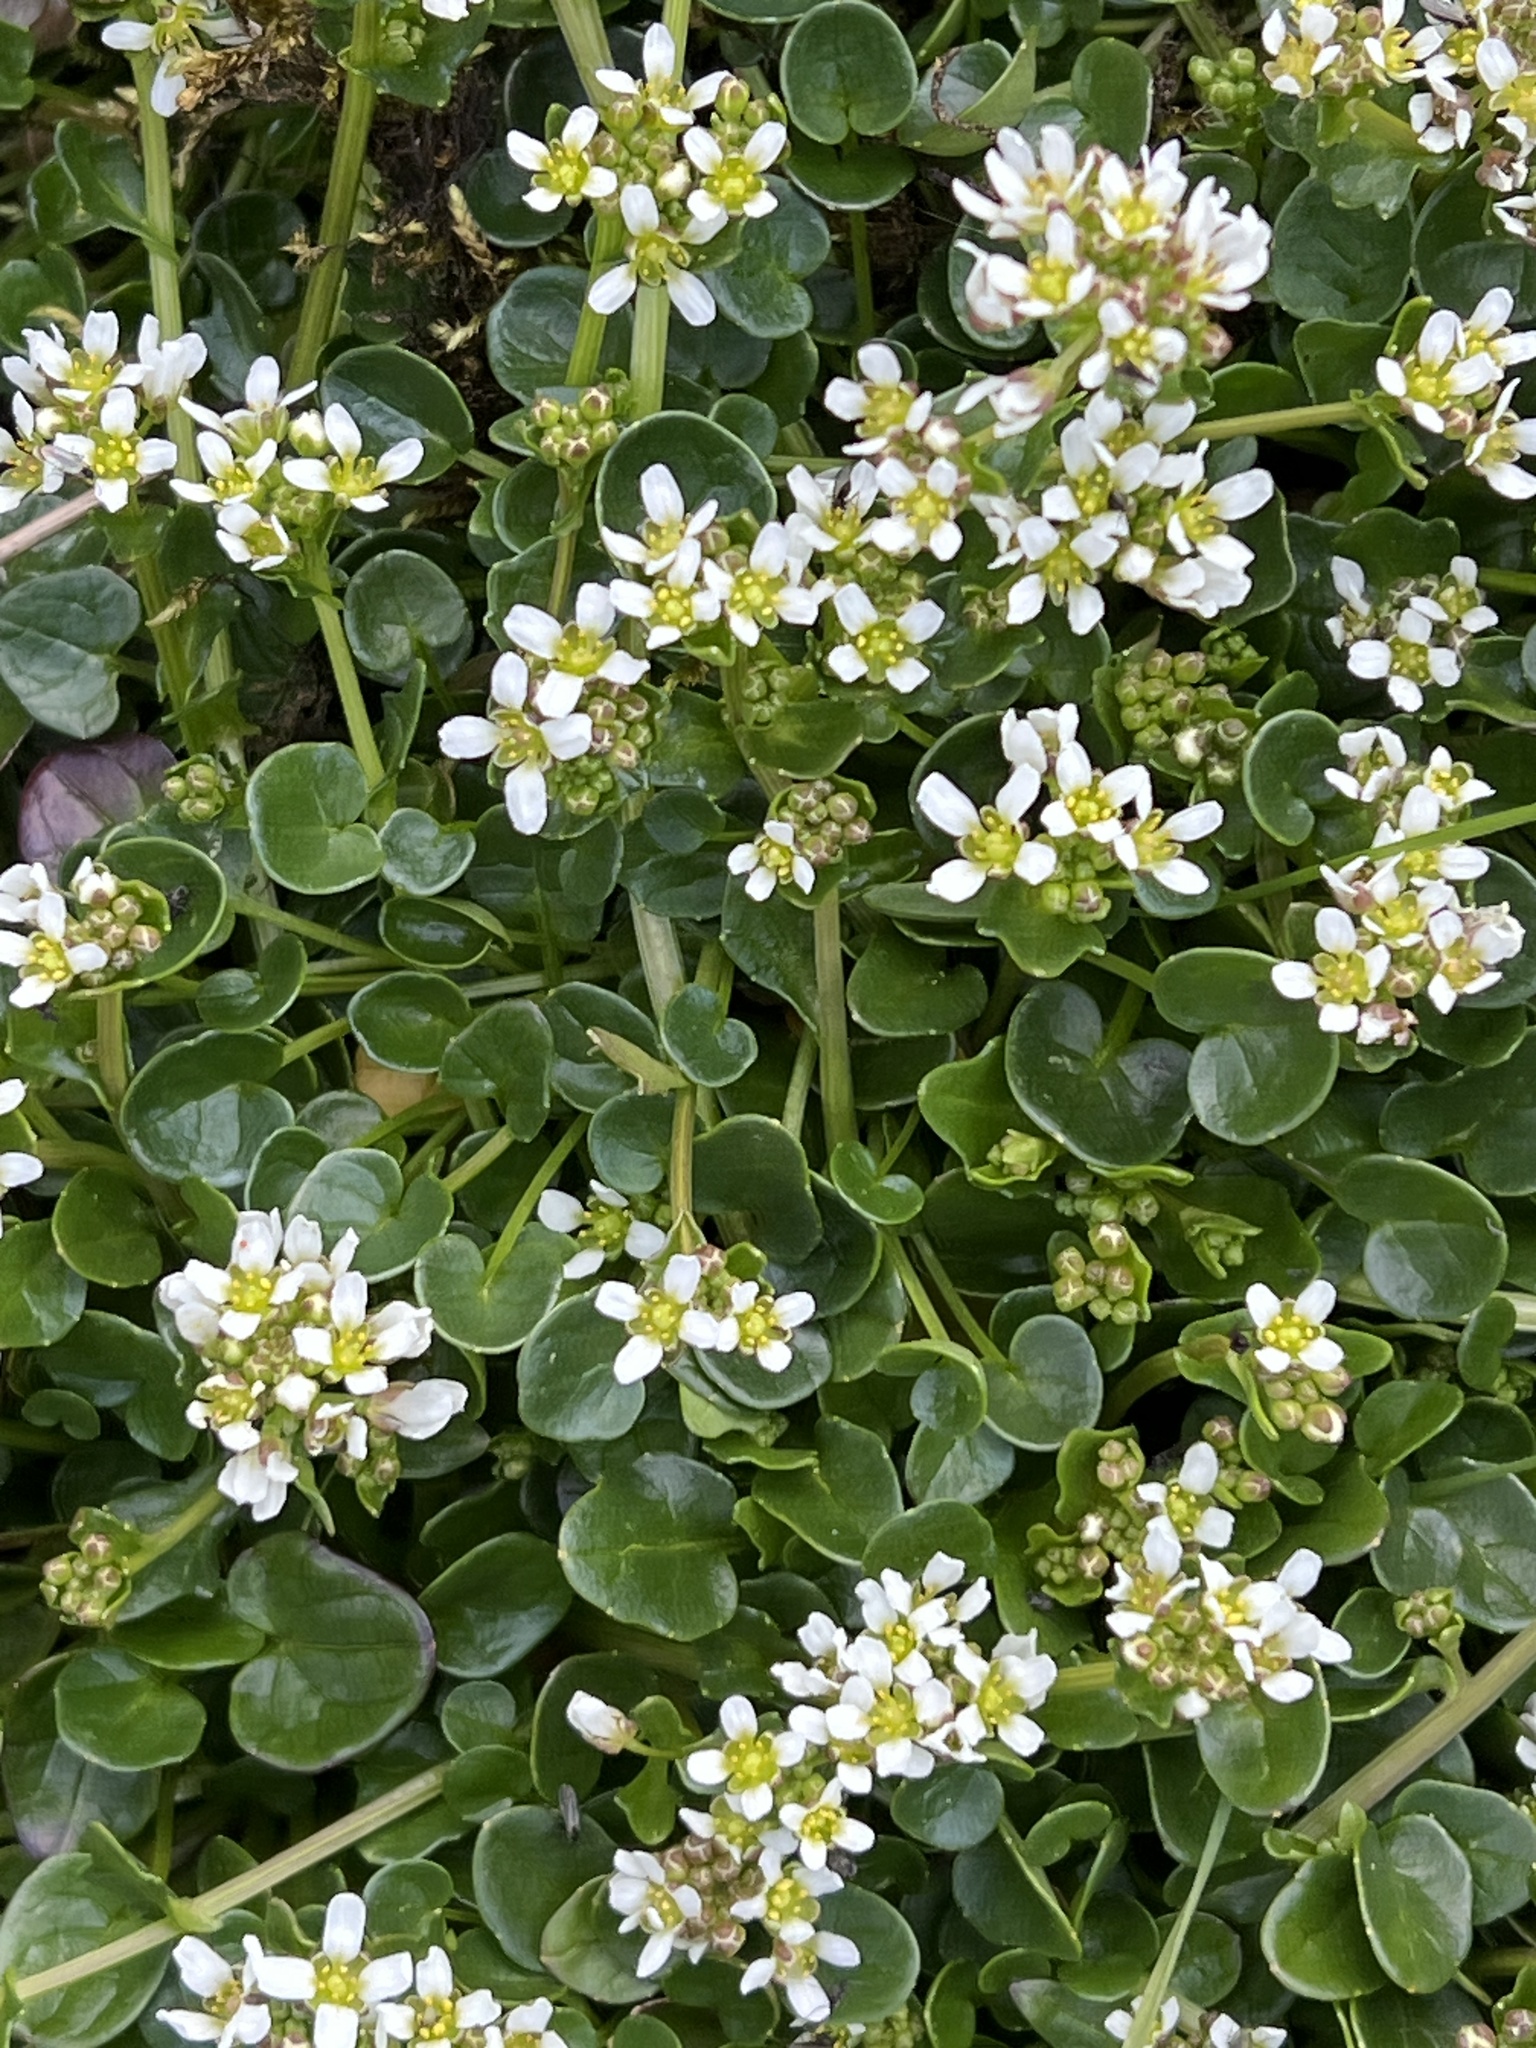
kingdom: Plantae
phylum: Tracheophyta
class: Magnoliopsida
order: Brassicales
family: Brassicaceae
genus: Cochlearia
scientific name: Cochlearia officinalis
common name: Scurvy-grass
